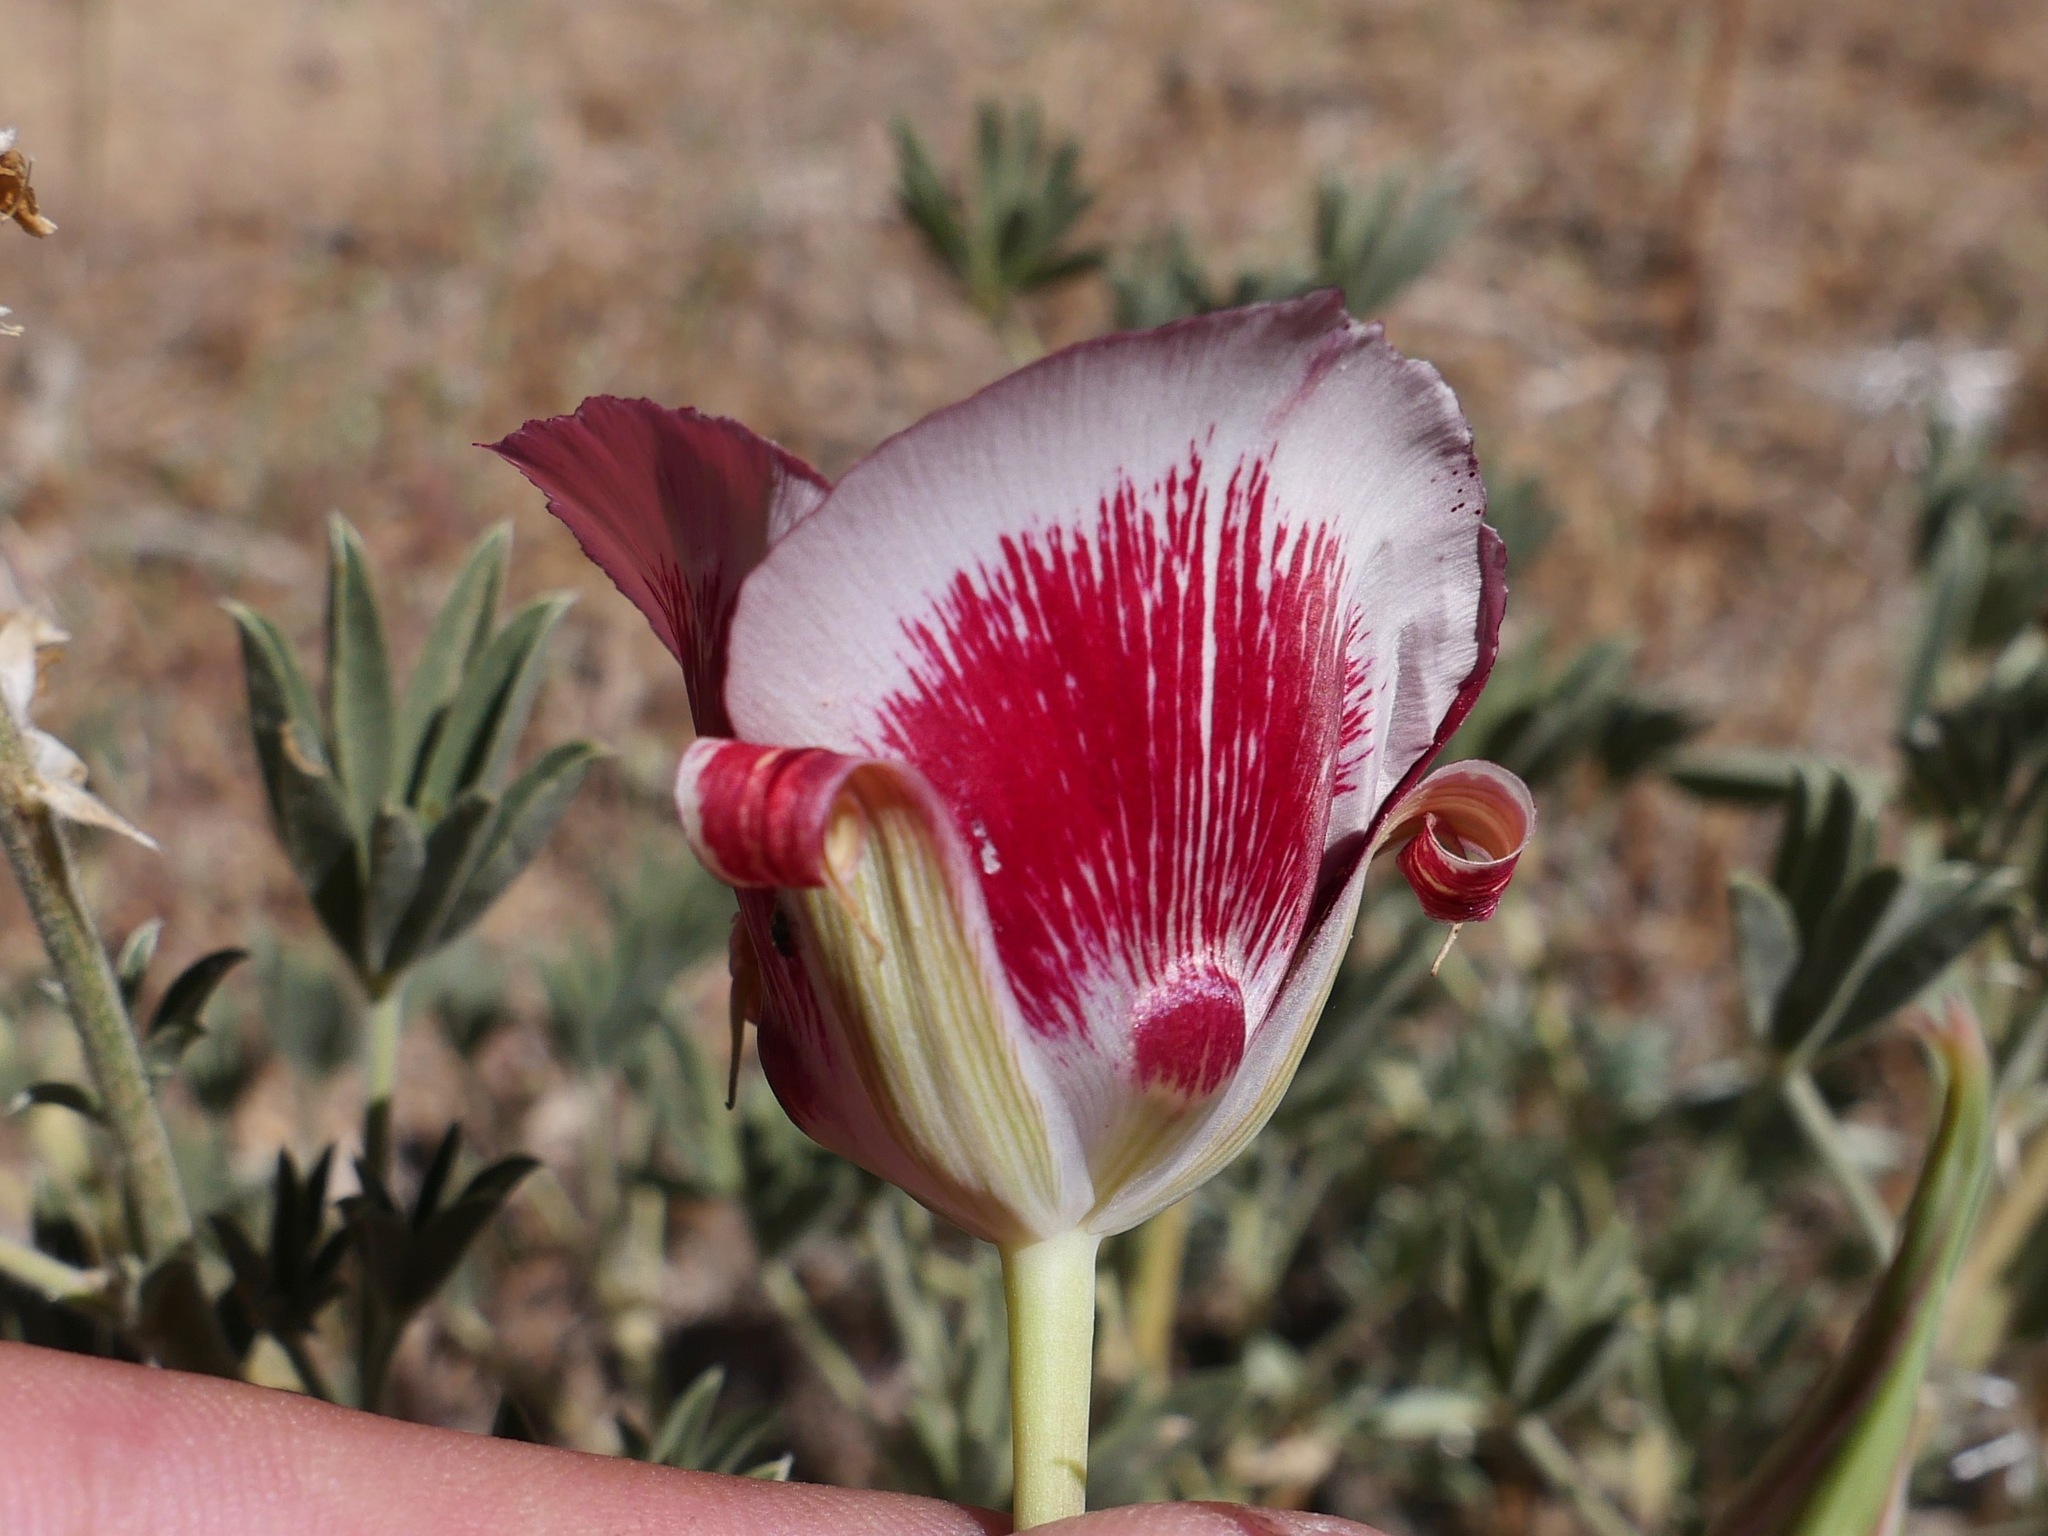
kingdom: Plantae
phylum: Tracheophyta
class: Liliopsida
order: Liliales
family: Liliaceae
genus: Calochortus
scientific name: Calochortus venustus
